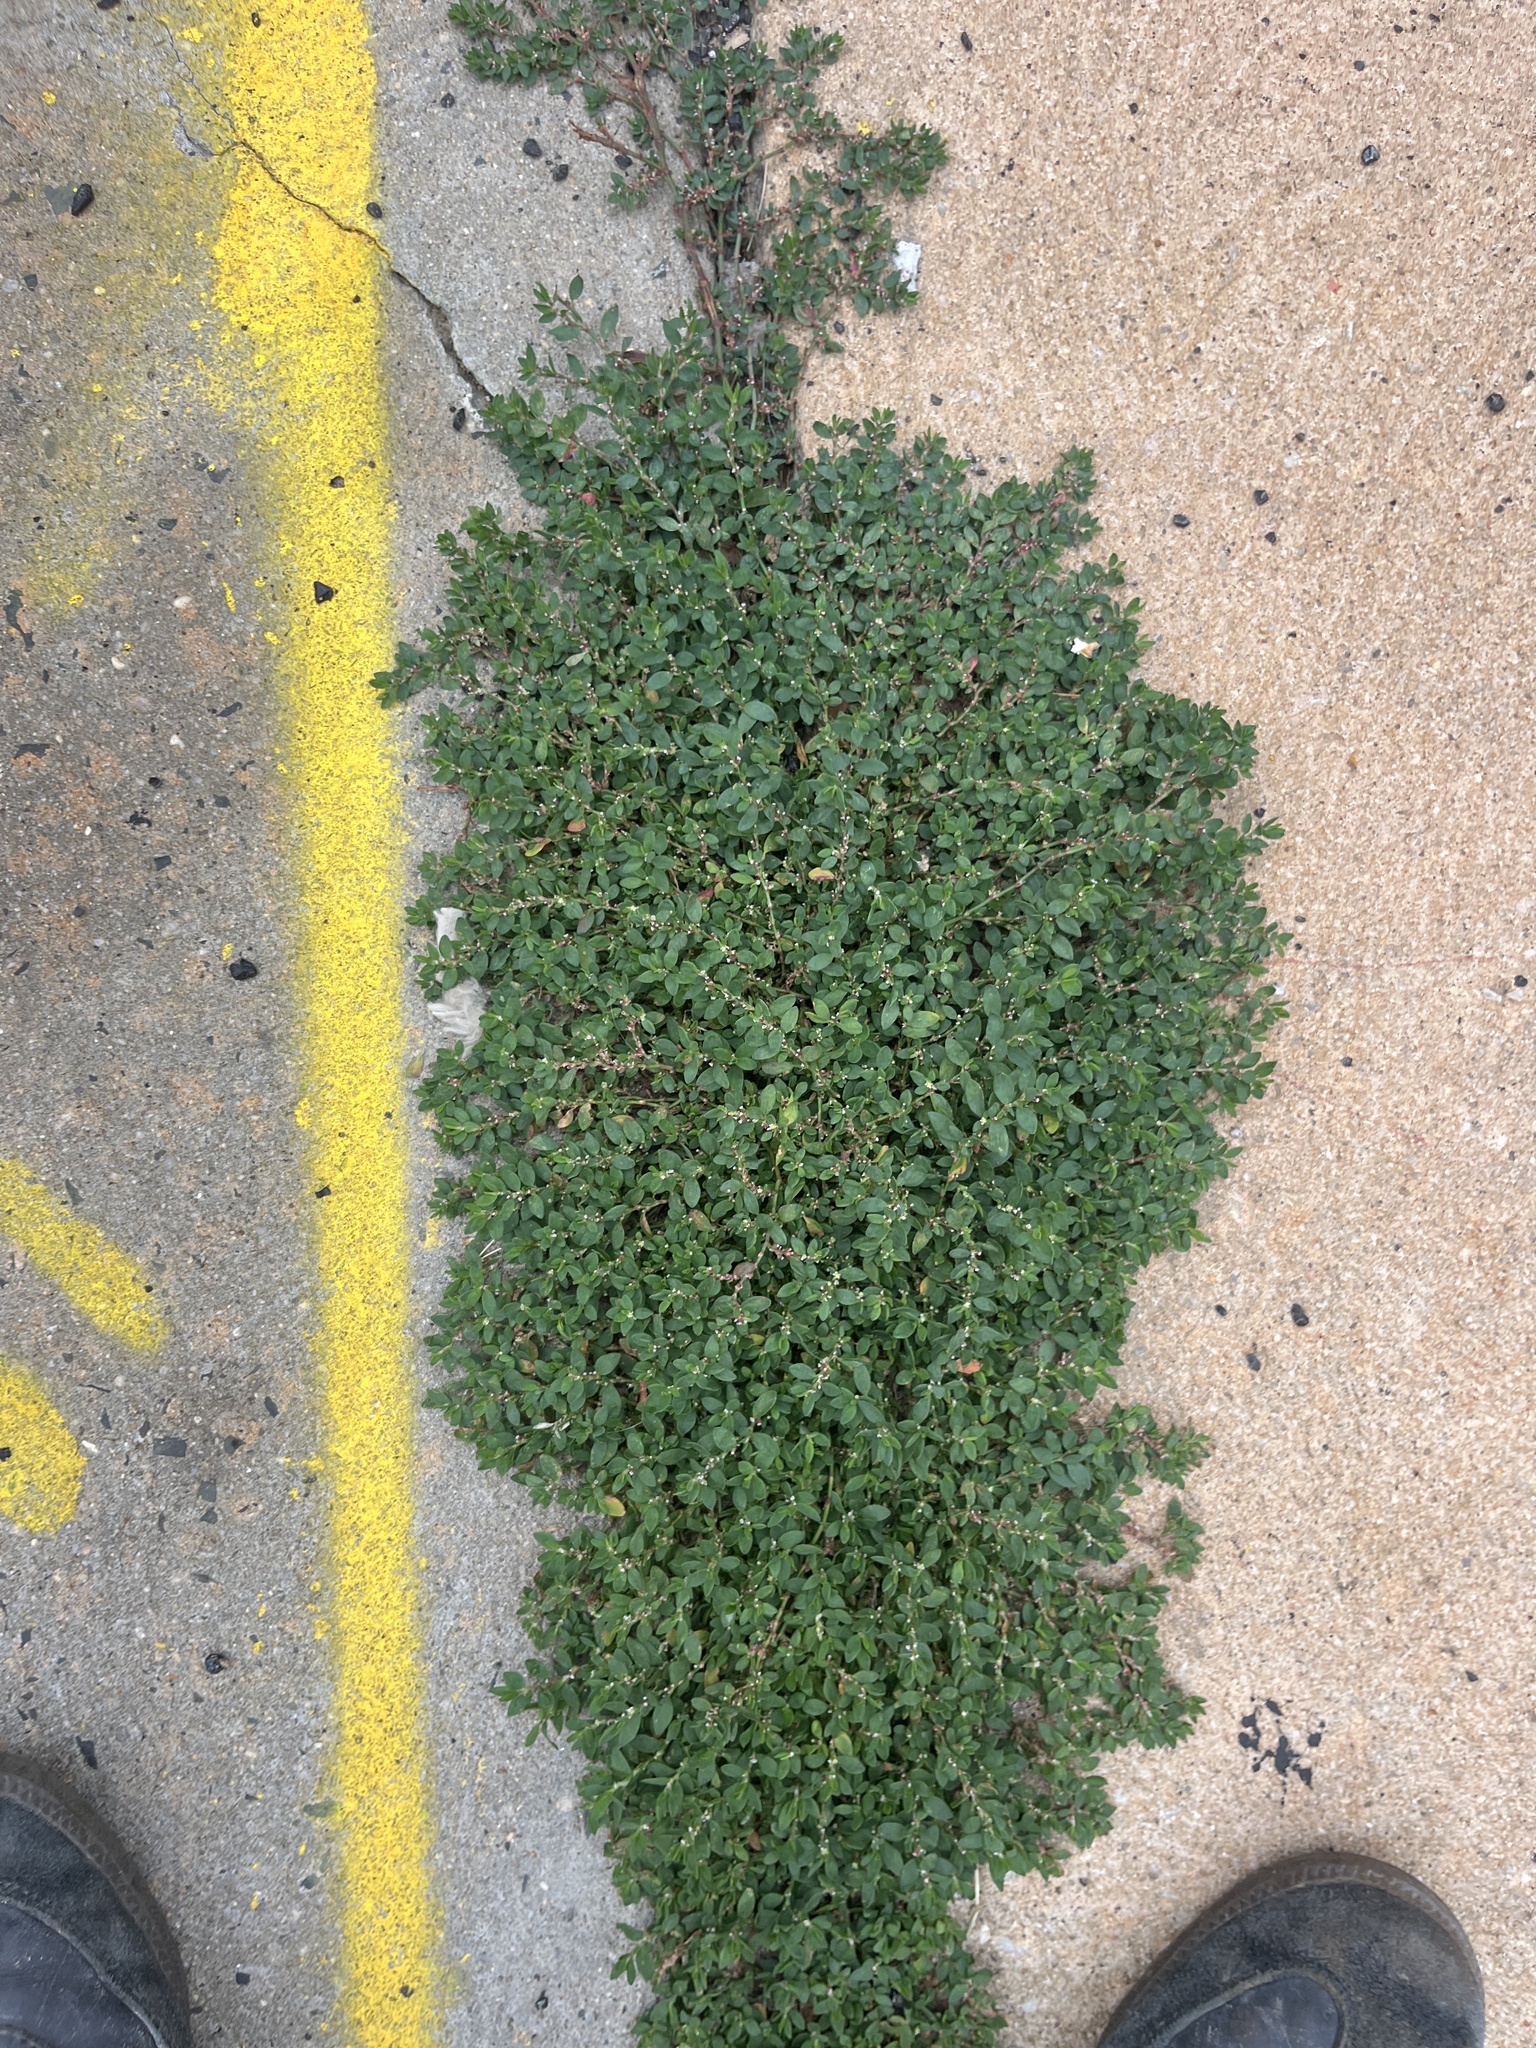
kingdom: Plantae
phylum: Tracheophyta
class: Magnoliopsida
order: Caryophyllales
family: Polygonaceae
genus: Polygonum
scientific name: Polygonum aviculare
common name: Prostrate knotweed
